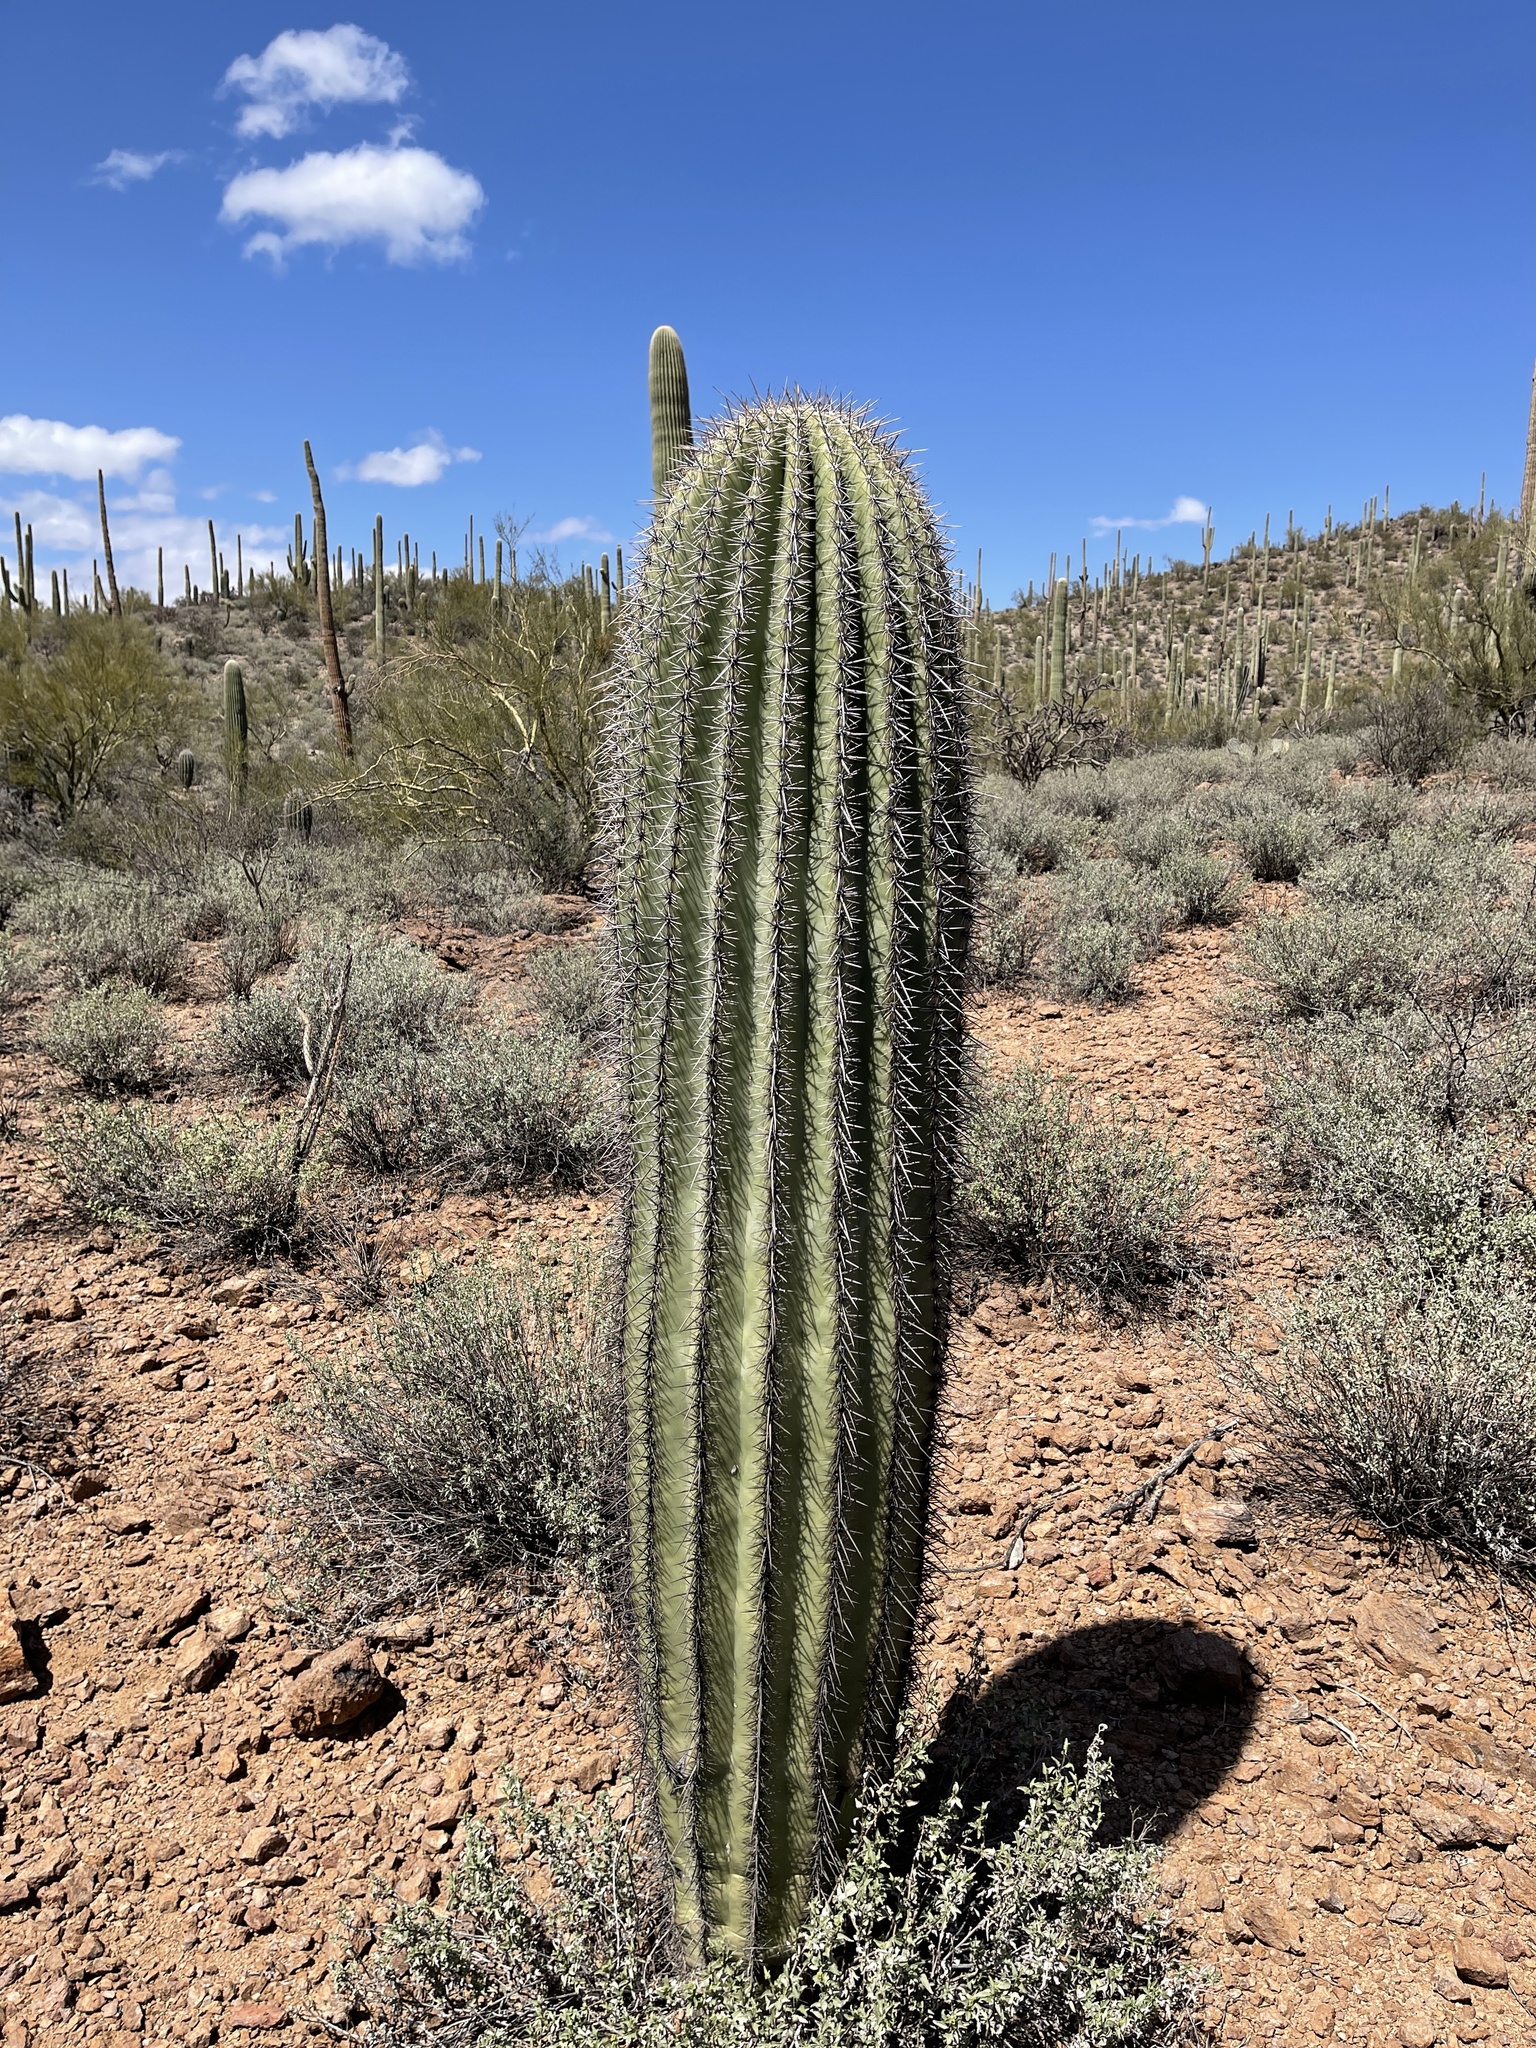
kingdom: Plantae
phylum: Tracheophyta
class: Magnoliopsida
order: Caryophyllales
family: Cactaceae
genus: Carnegiea
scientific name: Carnegiea gigantea
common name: Saguaro
